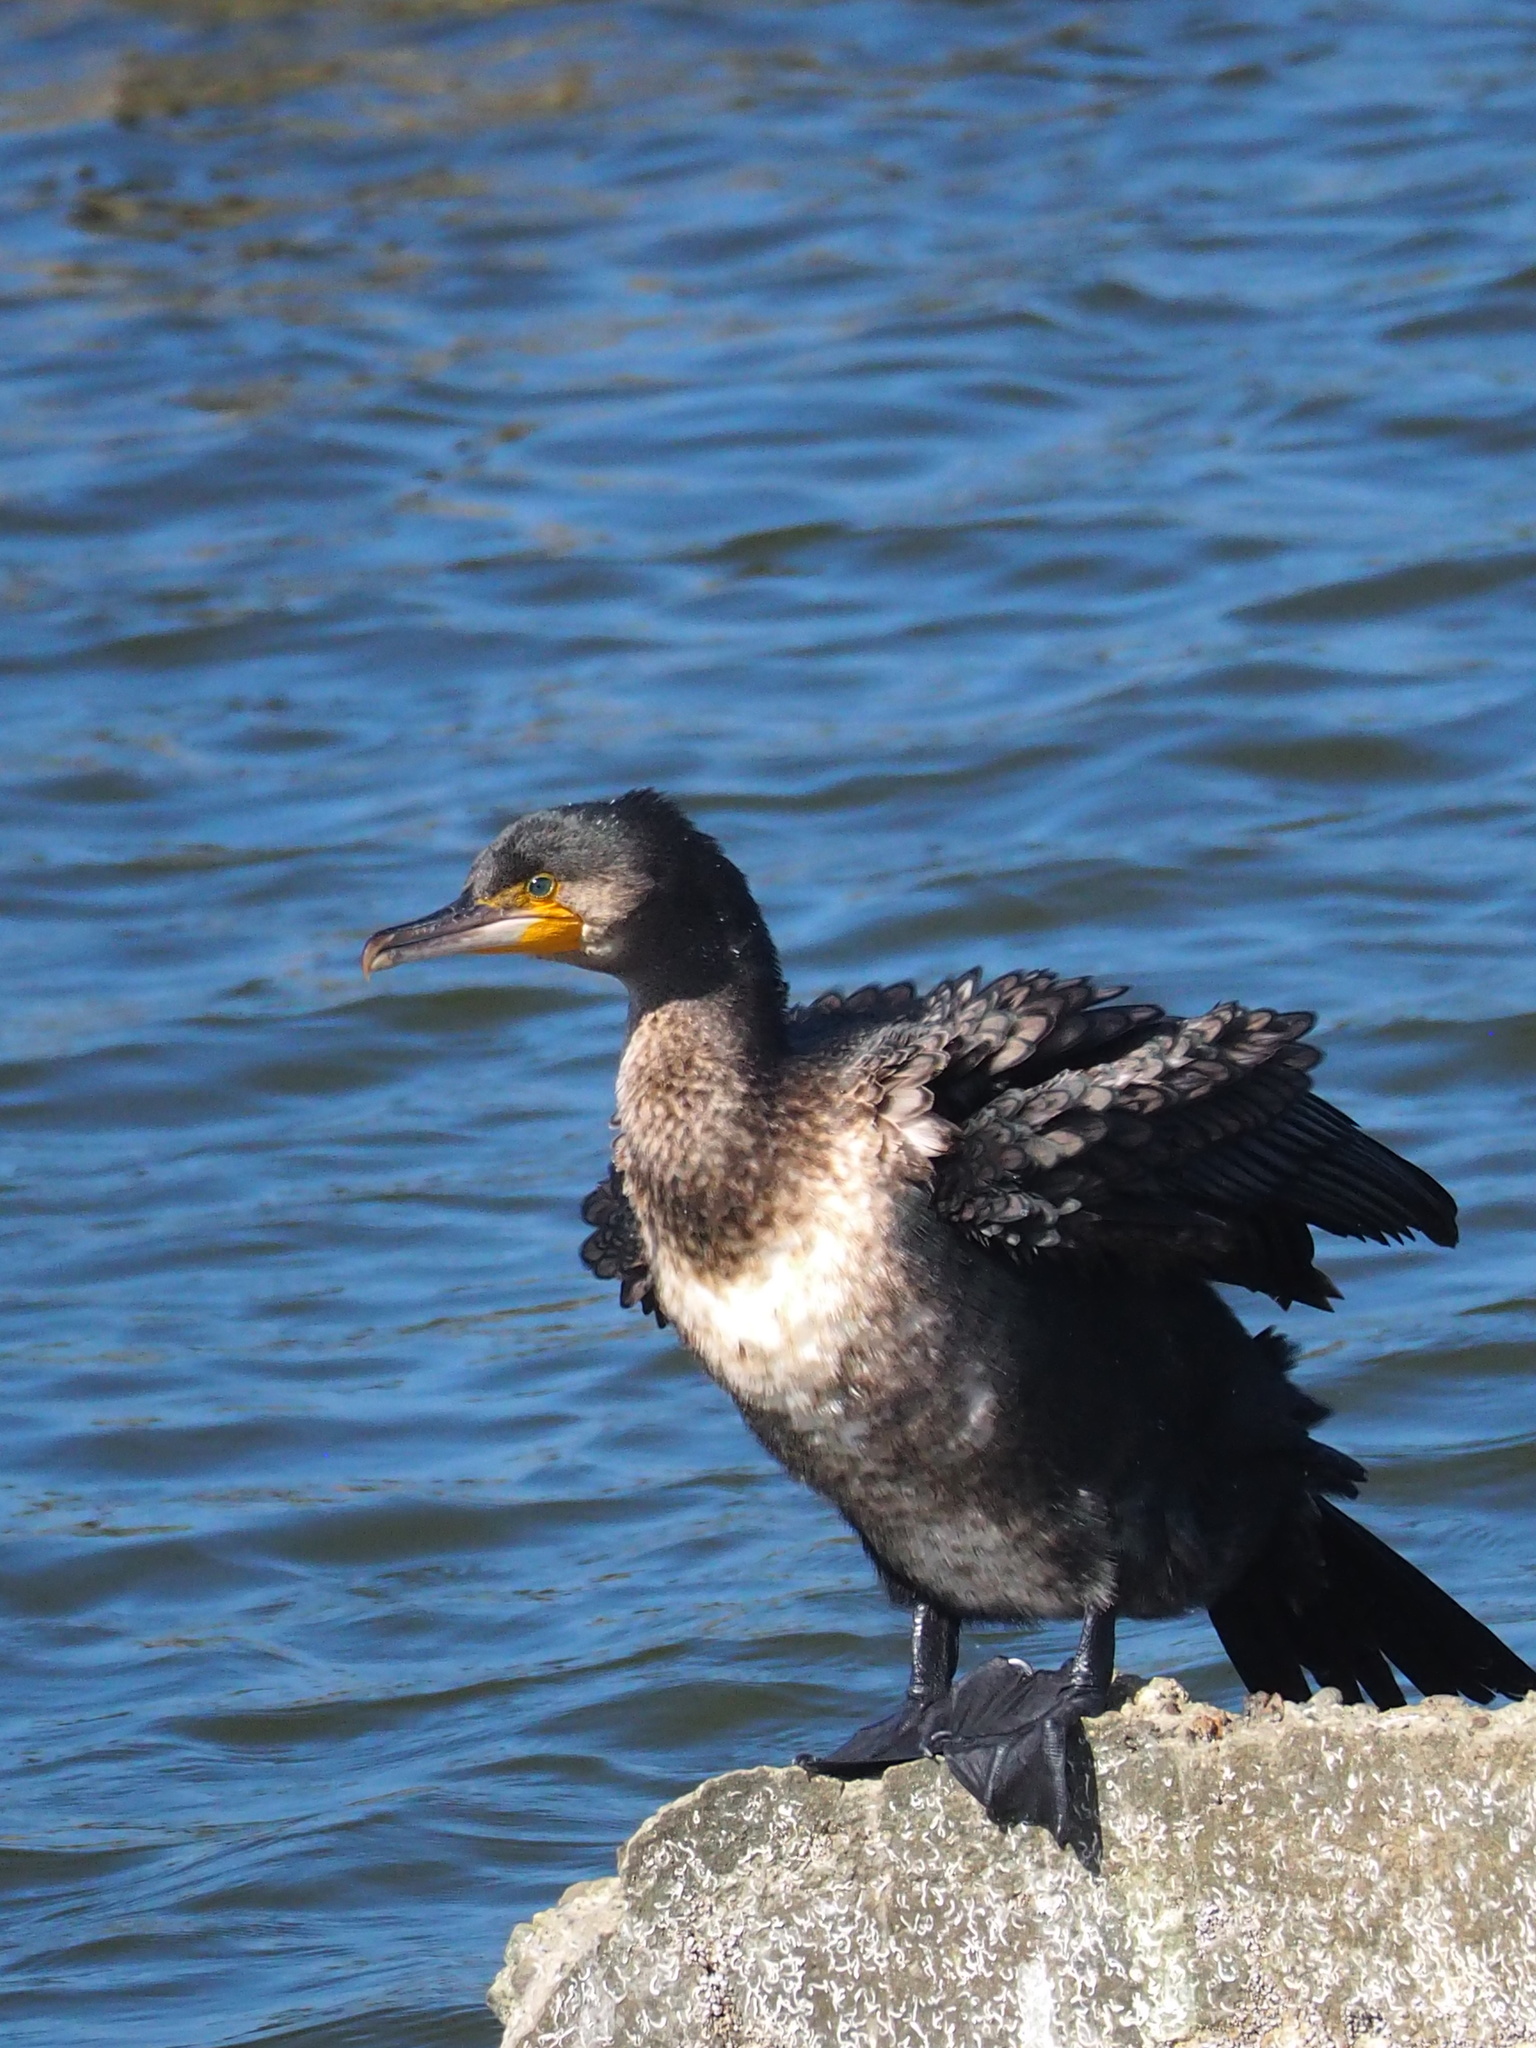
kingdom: Animalia
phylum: Chordata
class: Aves
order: Suliformes
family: Phalacrocoracidae
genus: Phalacrocorax
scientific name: Phalacrocorax carbo
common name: Great cormorant
